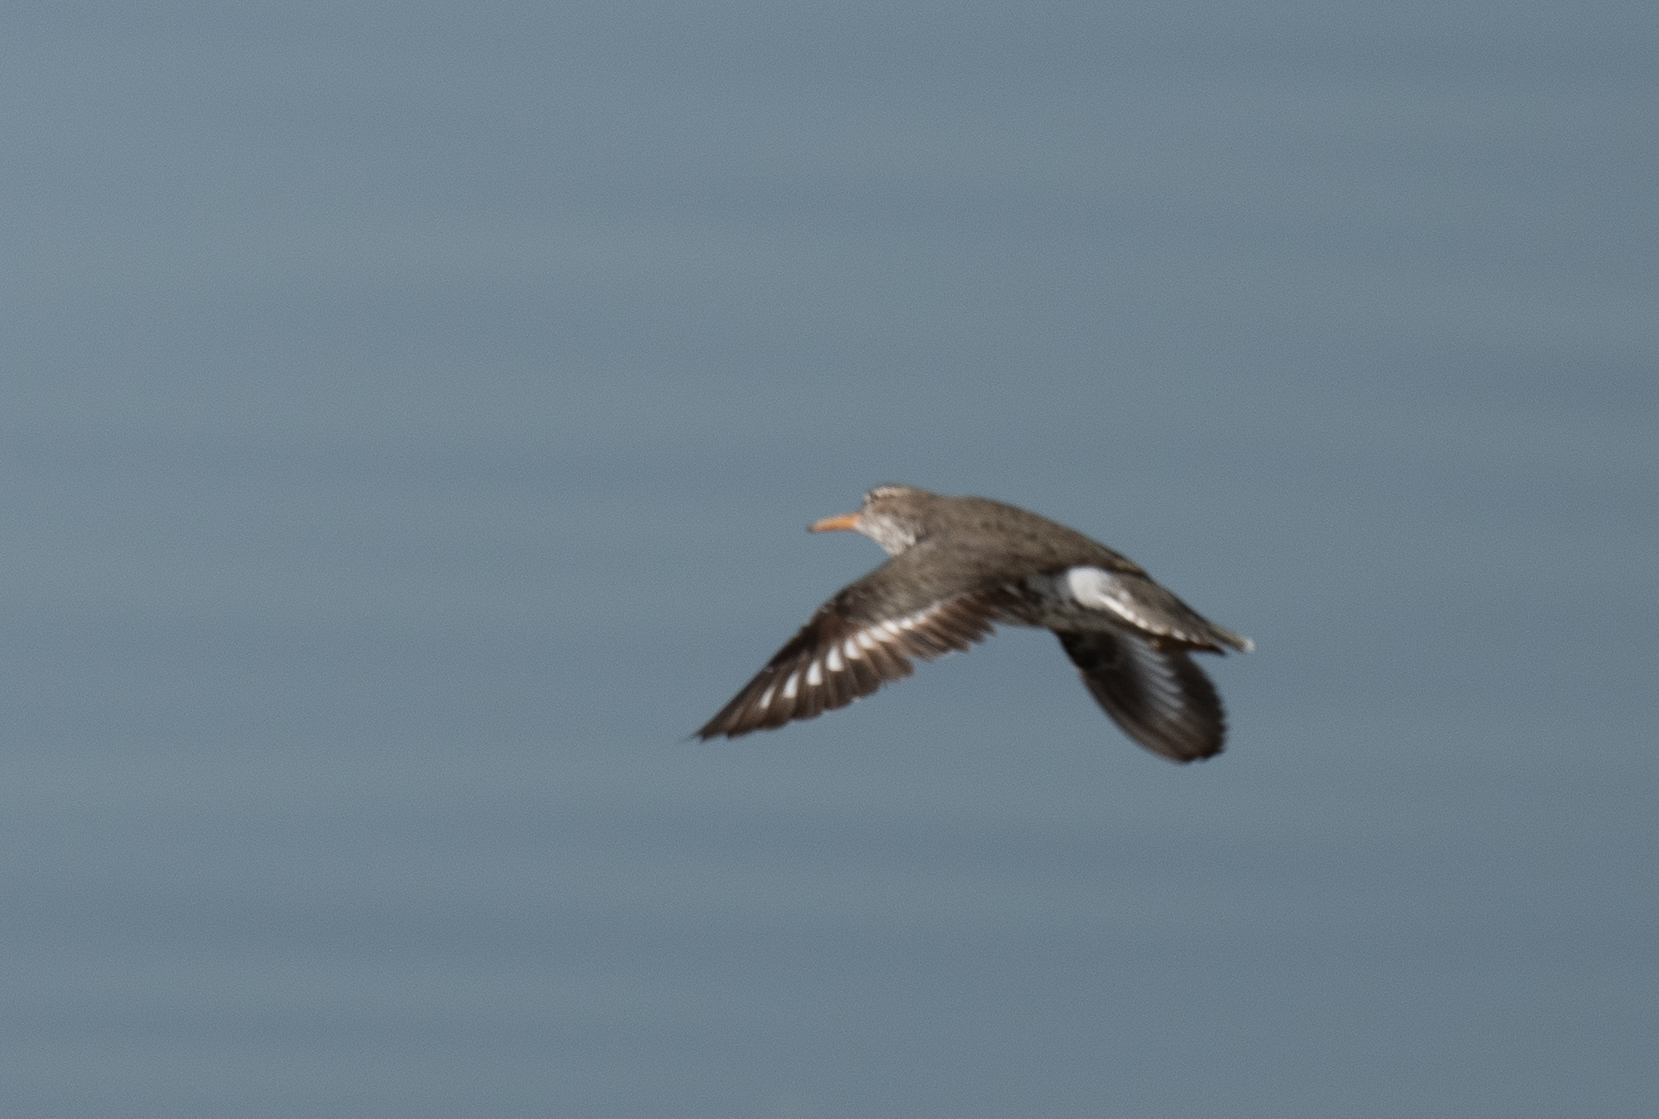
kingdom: Animalia
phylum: Chordata
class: Aves
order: Charadriiformes
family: Scolopacidae
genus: Actitis
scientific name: Actitis macularius
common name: Spotted sandpiper
